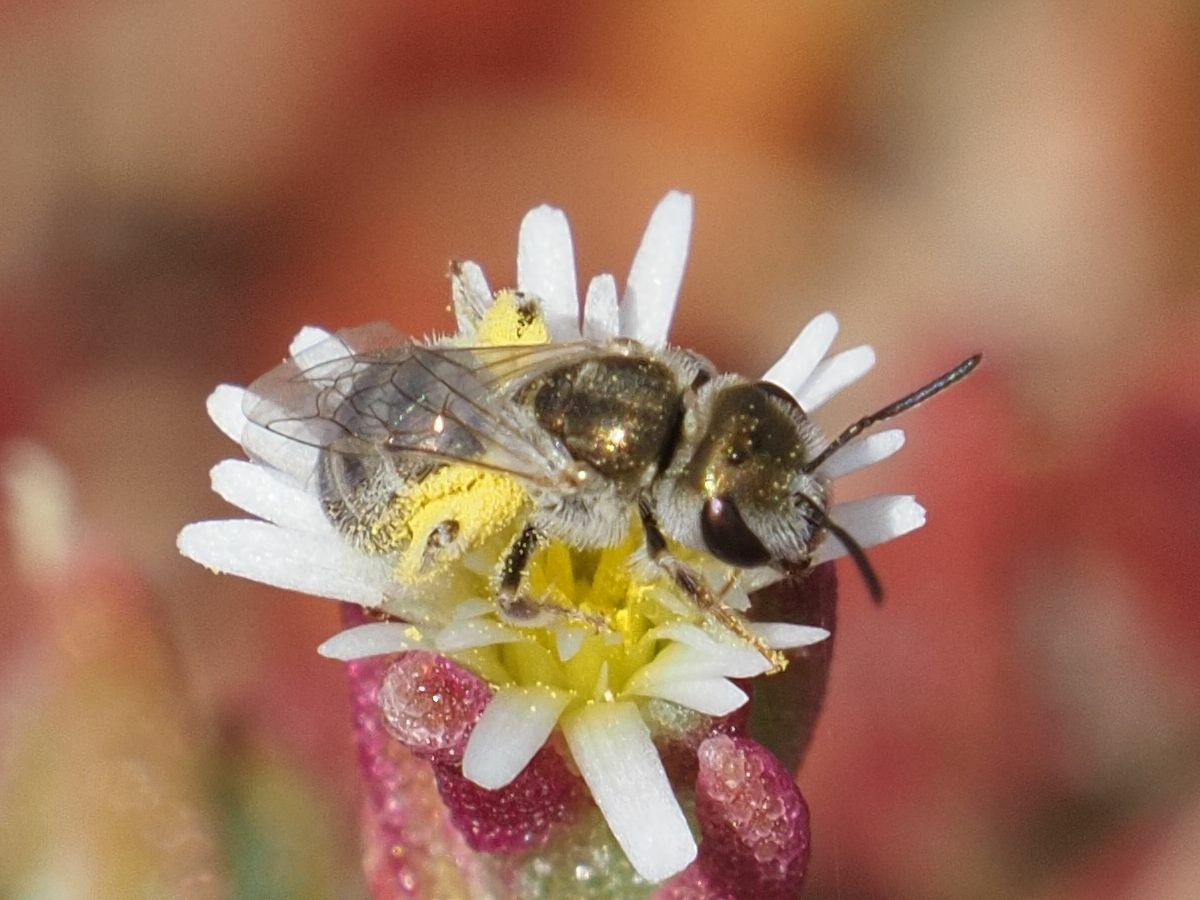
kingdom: Animalia
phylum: Arthropoda
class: Insecta
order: Hymenoptera
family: Halictidae
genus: Halictus
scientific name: Halictus concinnus
